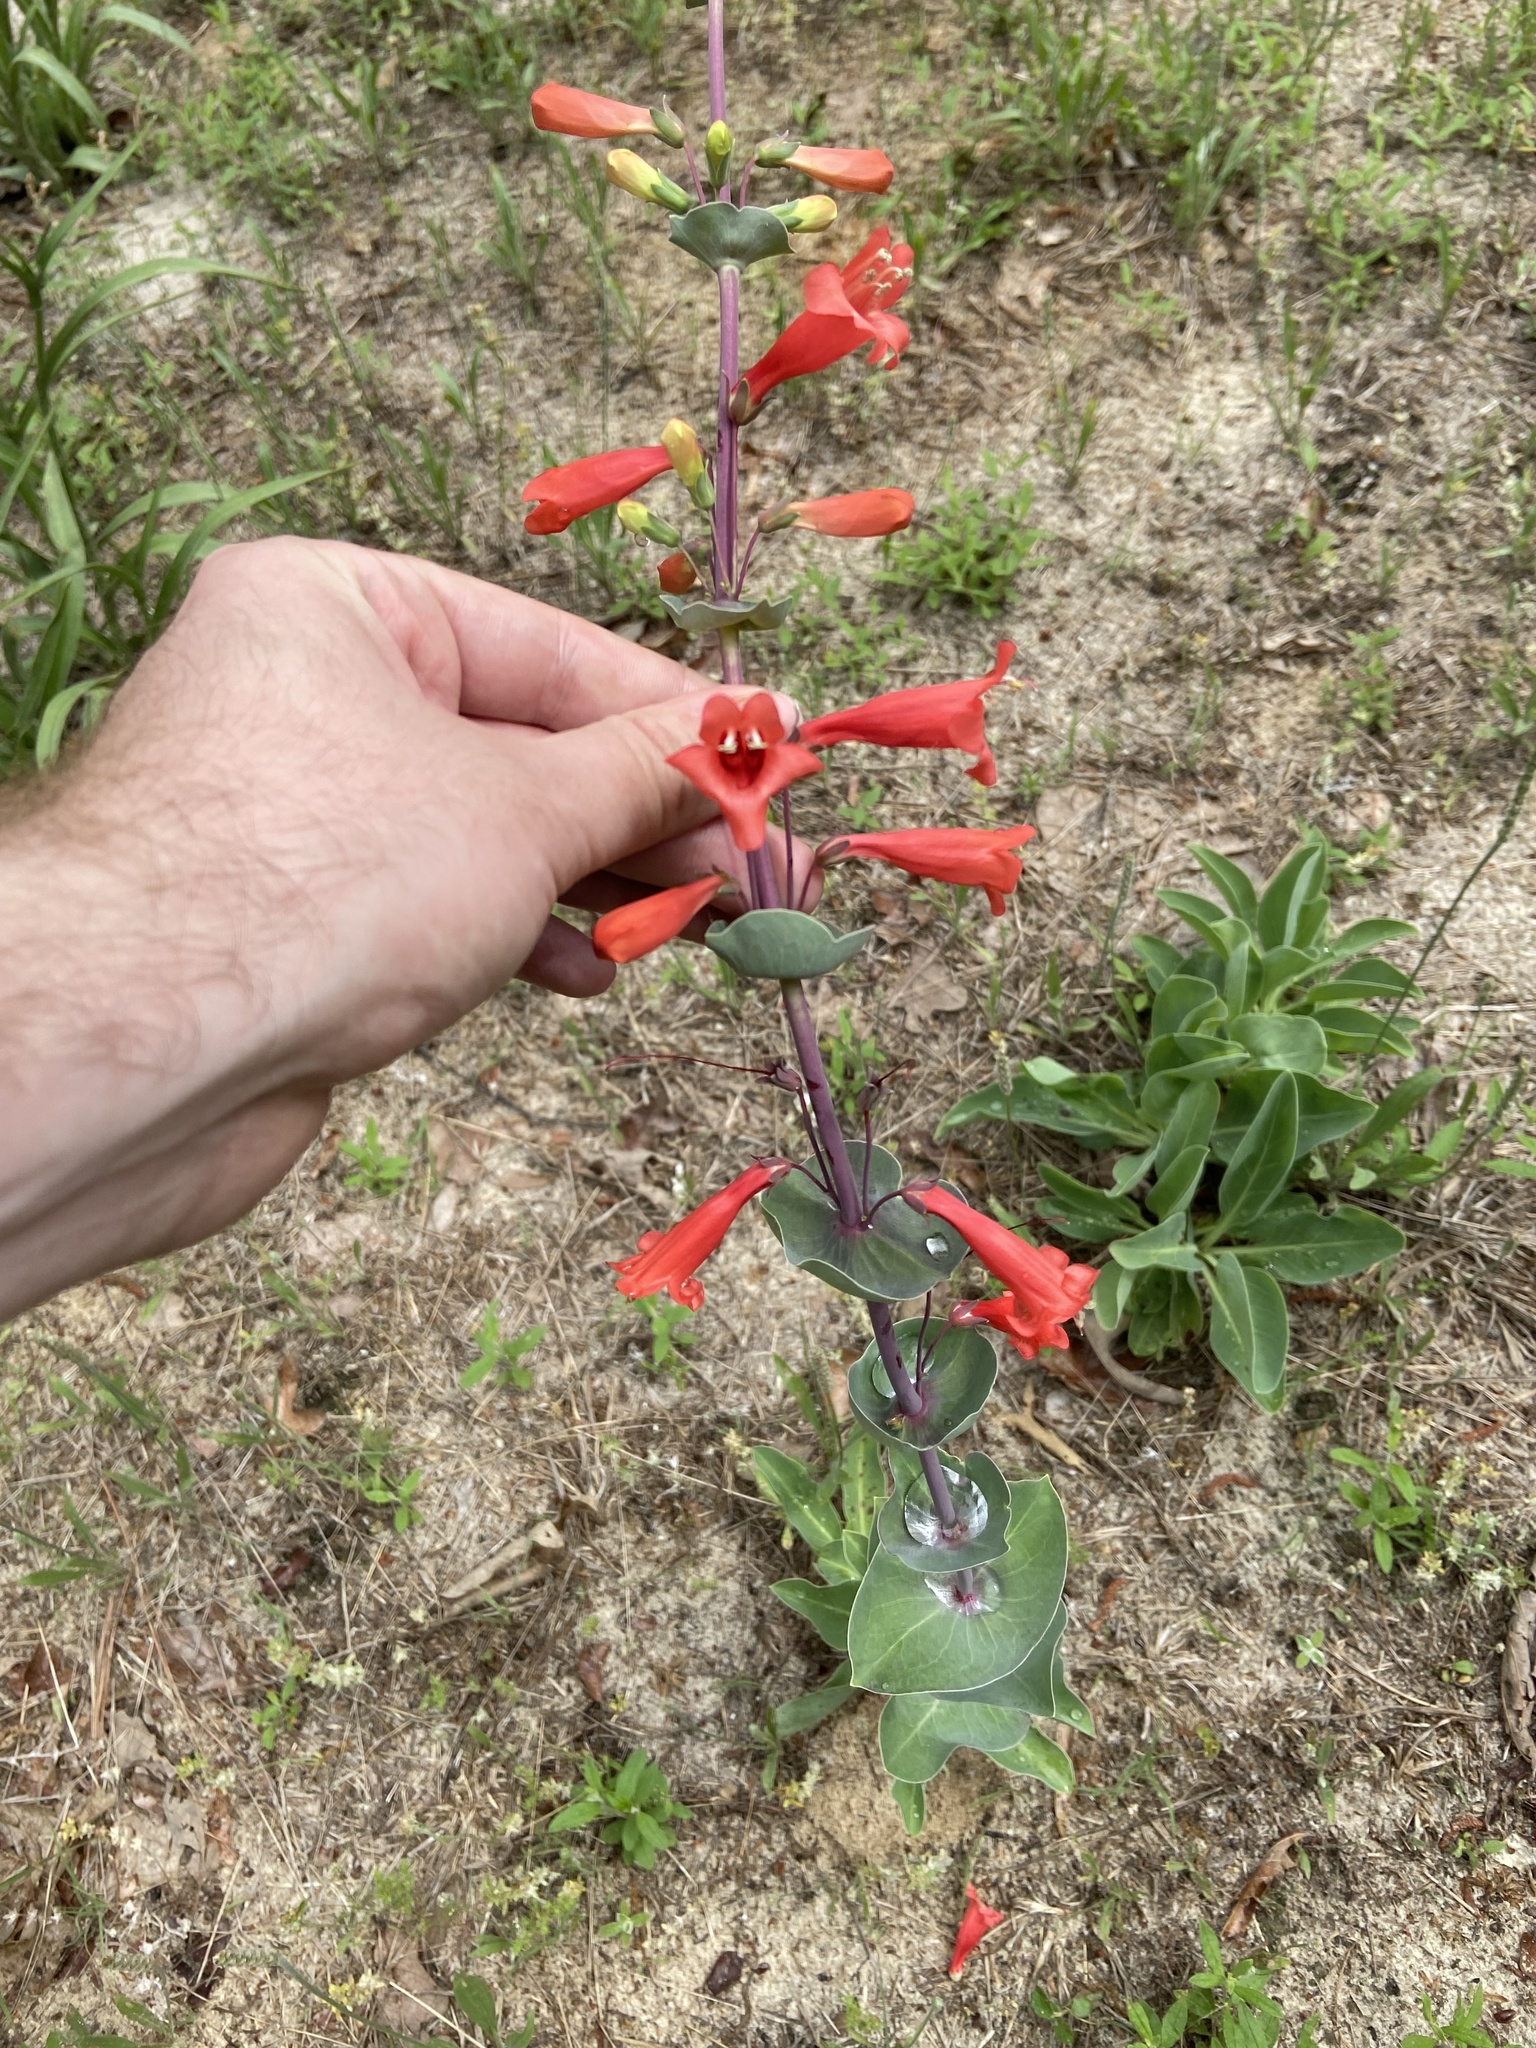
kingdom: Plantae
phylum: Tracheophyta
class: Magnoliopsida
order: Lamiales
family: Plantaginaceae
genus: Penstemon
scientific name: Penstemon murrayanus
